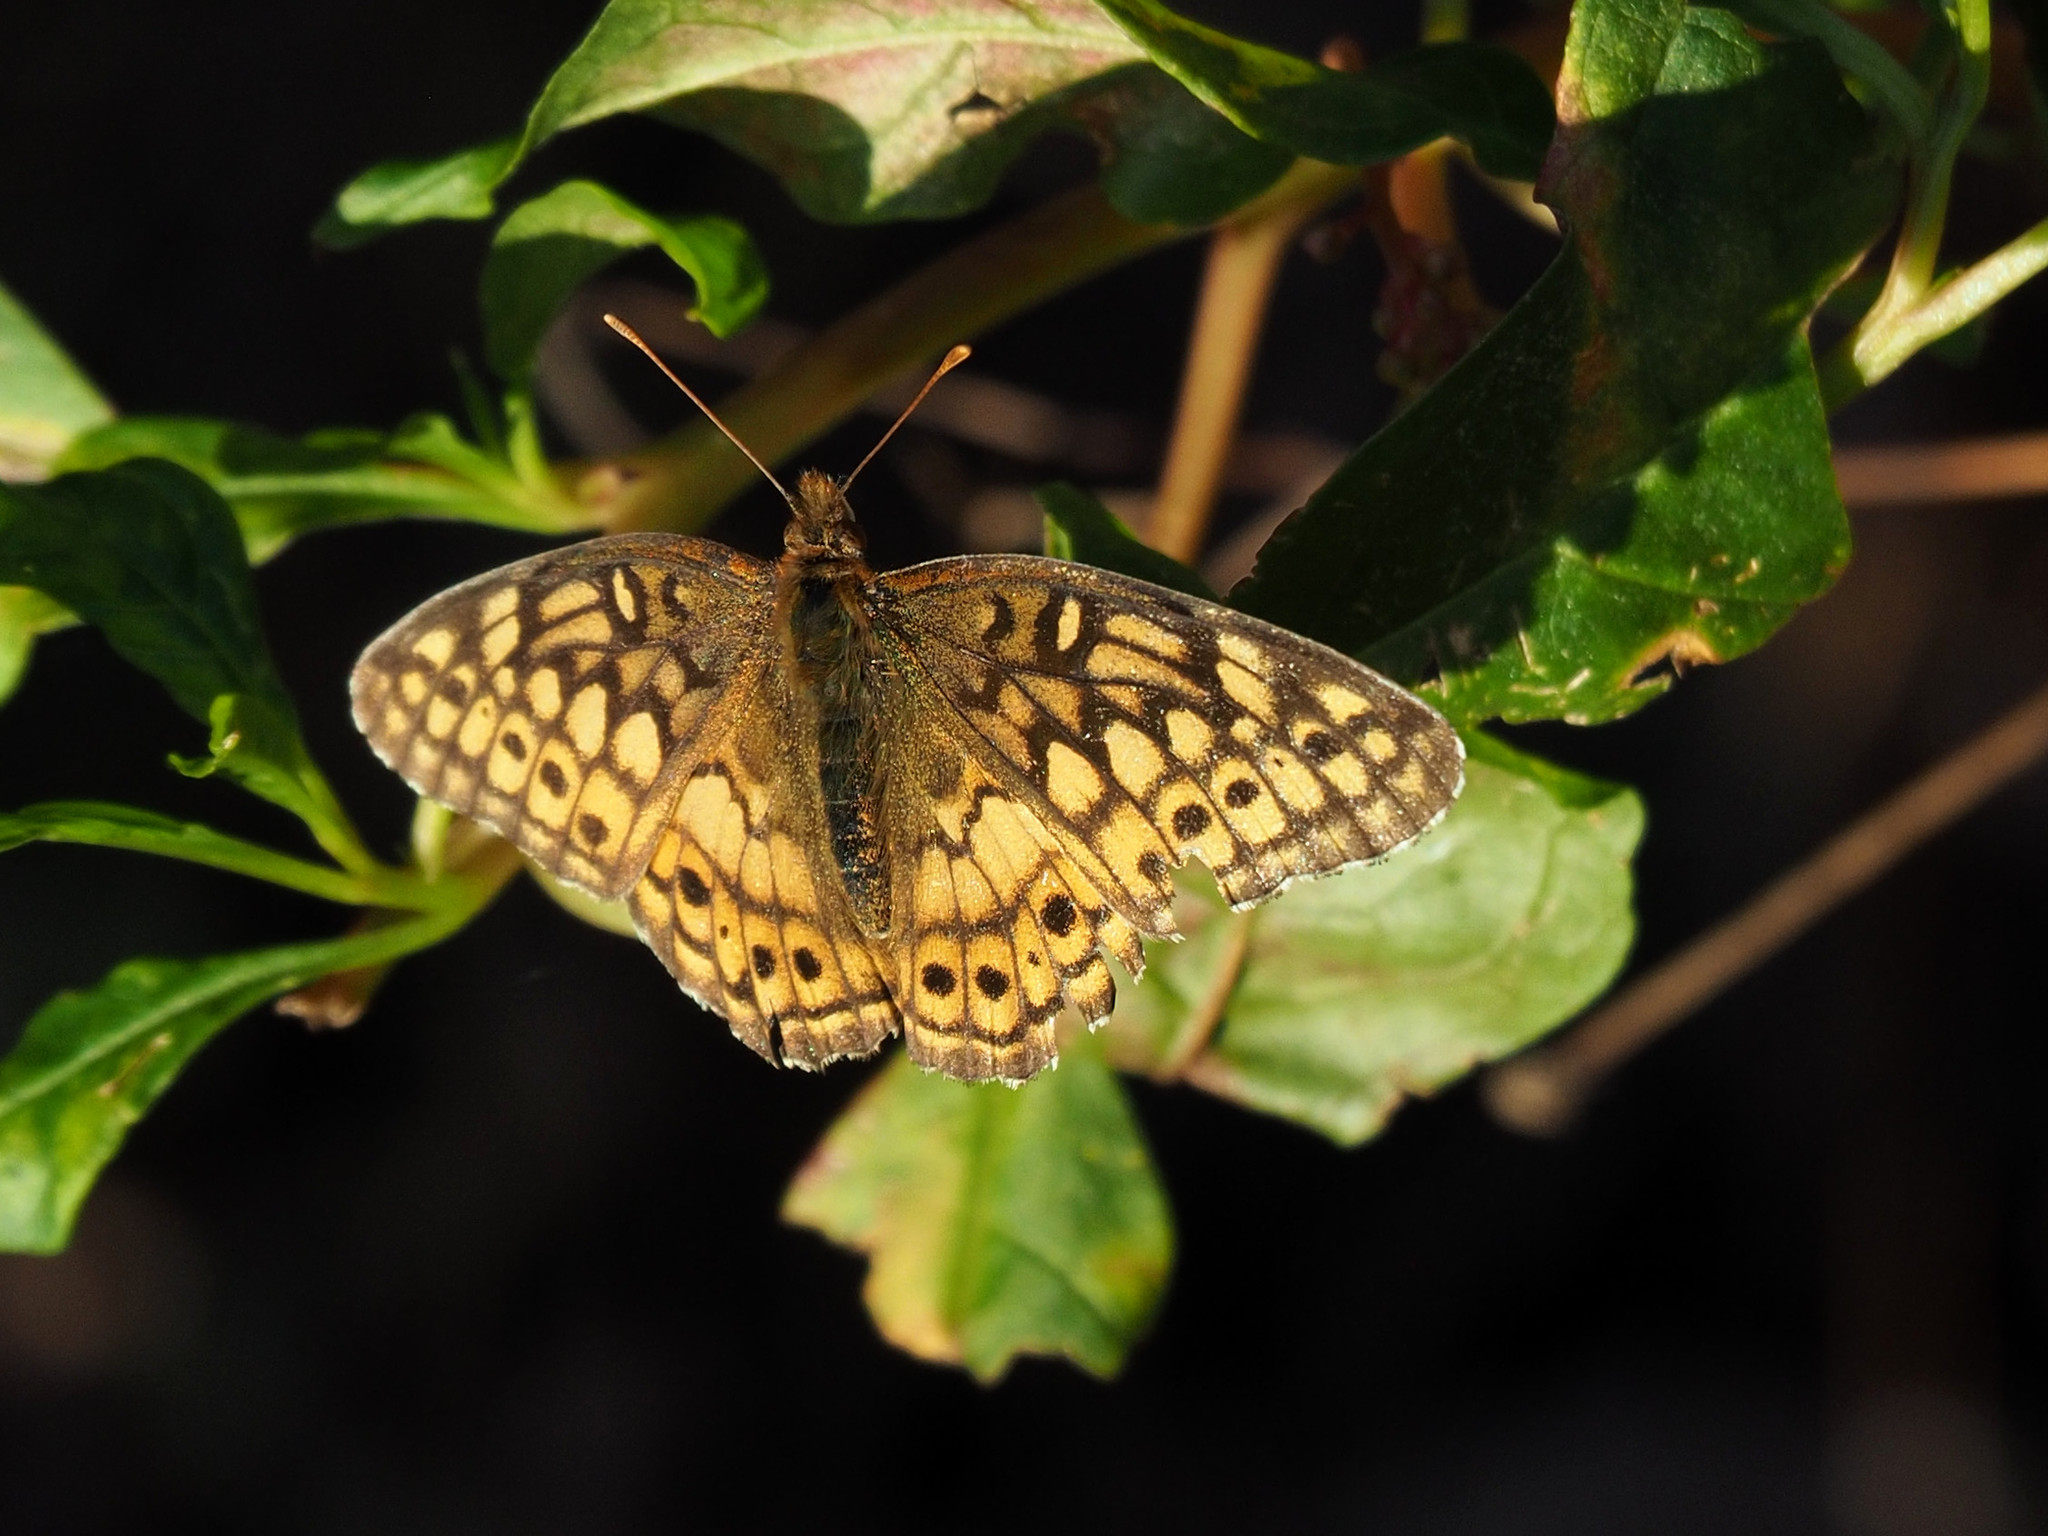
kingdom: Animalia
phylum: Arthropoda
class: Insecta
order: Lepidoptera
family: Nymphalidae
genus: Euptoieta
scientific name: Euptoieta claudia
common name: Variegated fritillary
